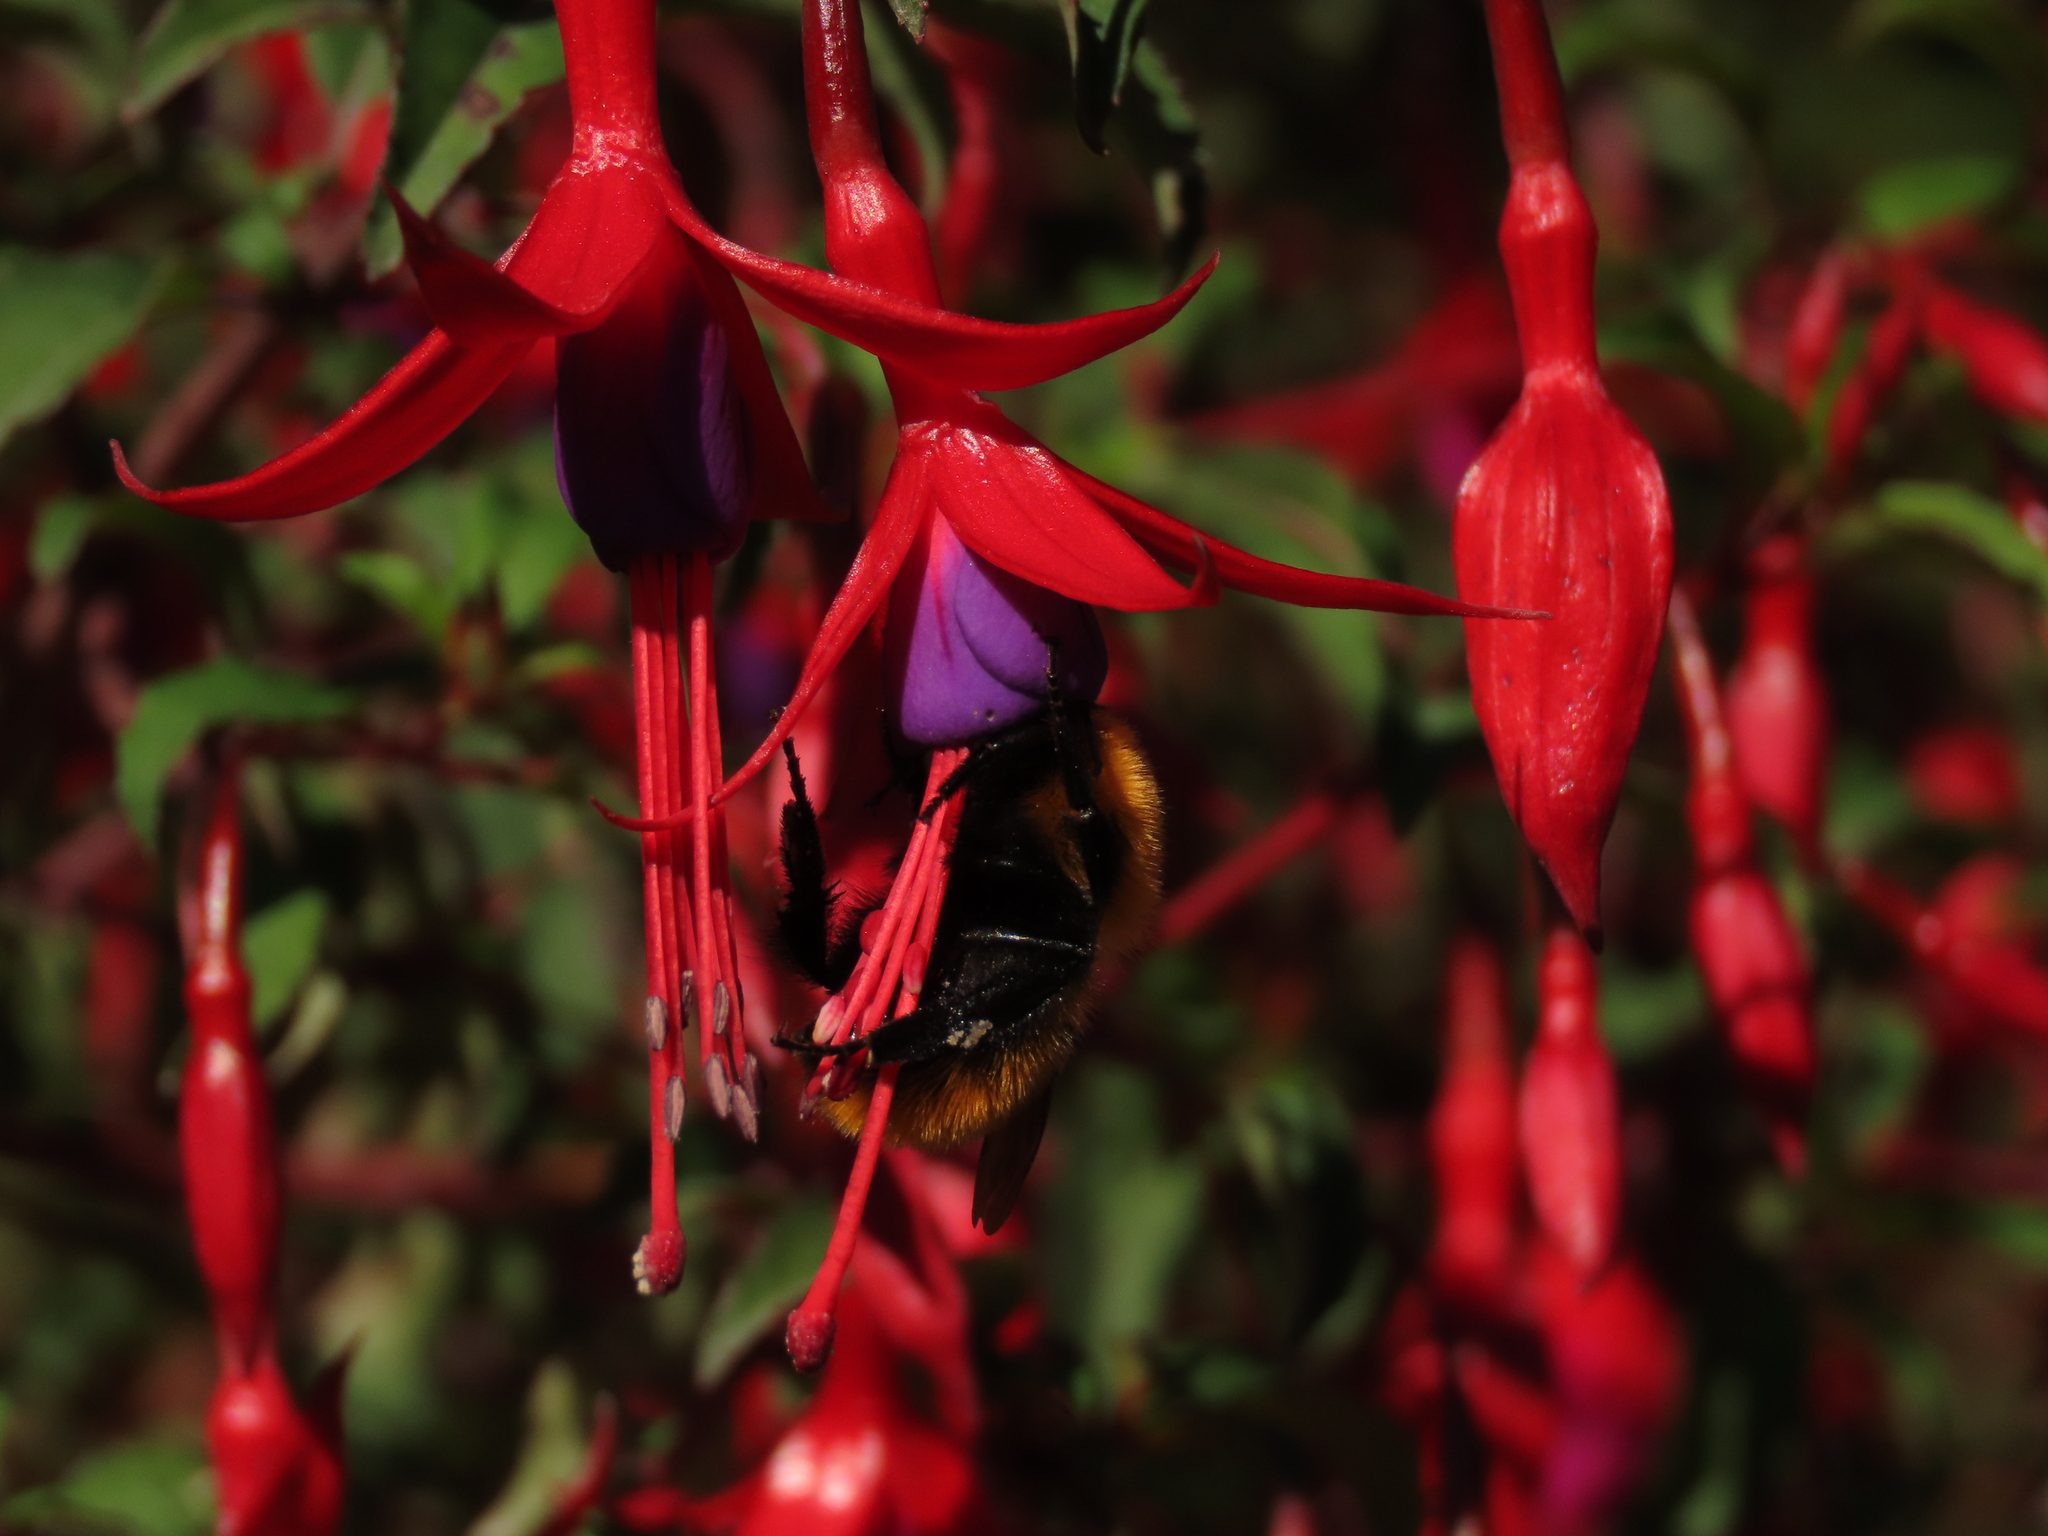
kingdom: Animalia
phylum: Arthropoda
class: Insecta
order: Hymenoptera
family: Apidae
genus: Bombus
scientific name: Bombus dahlbomii
